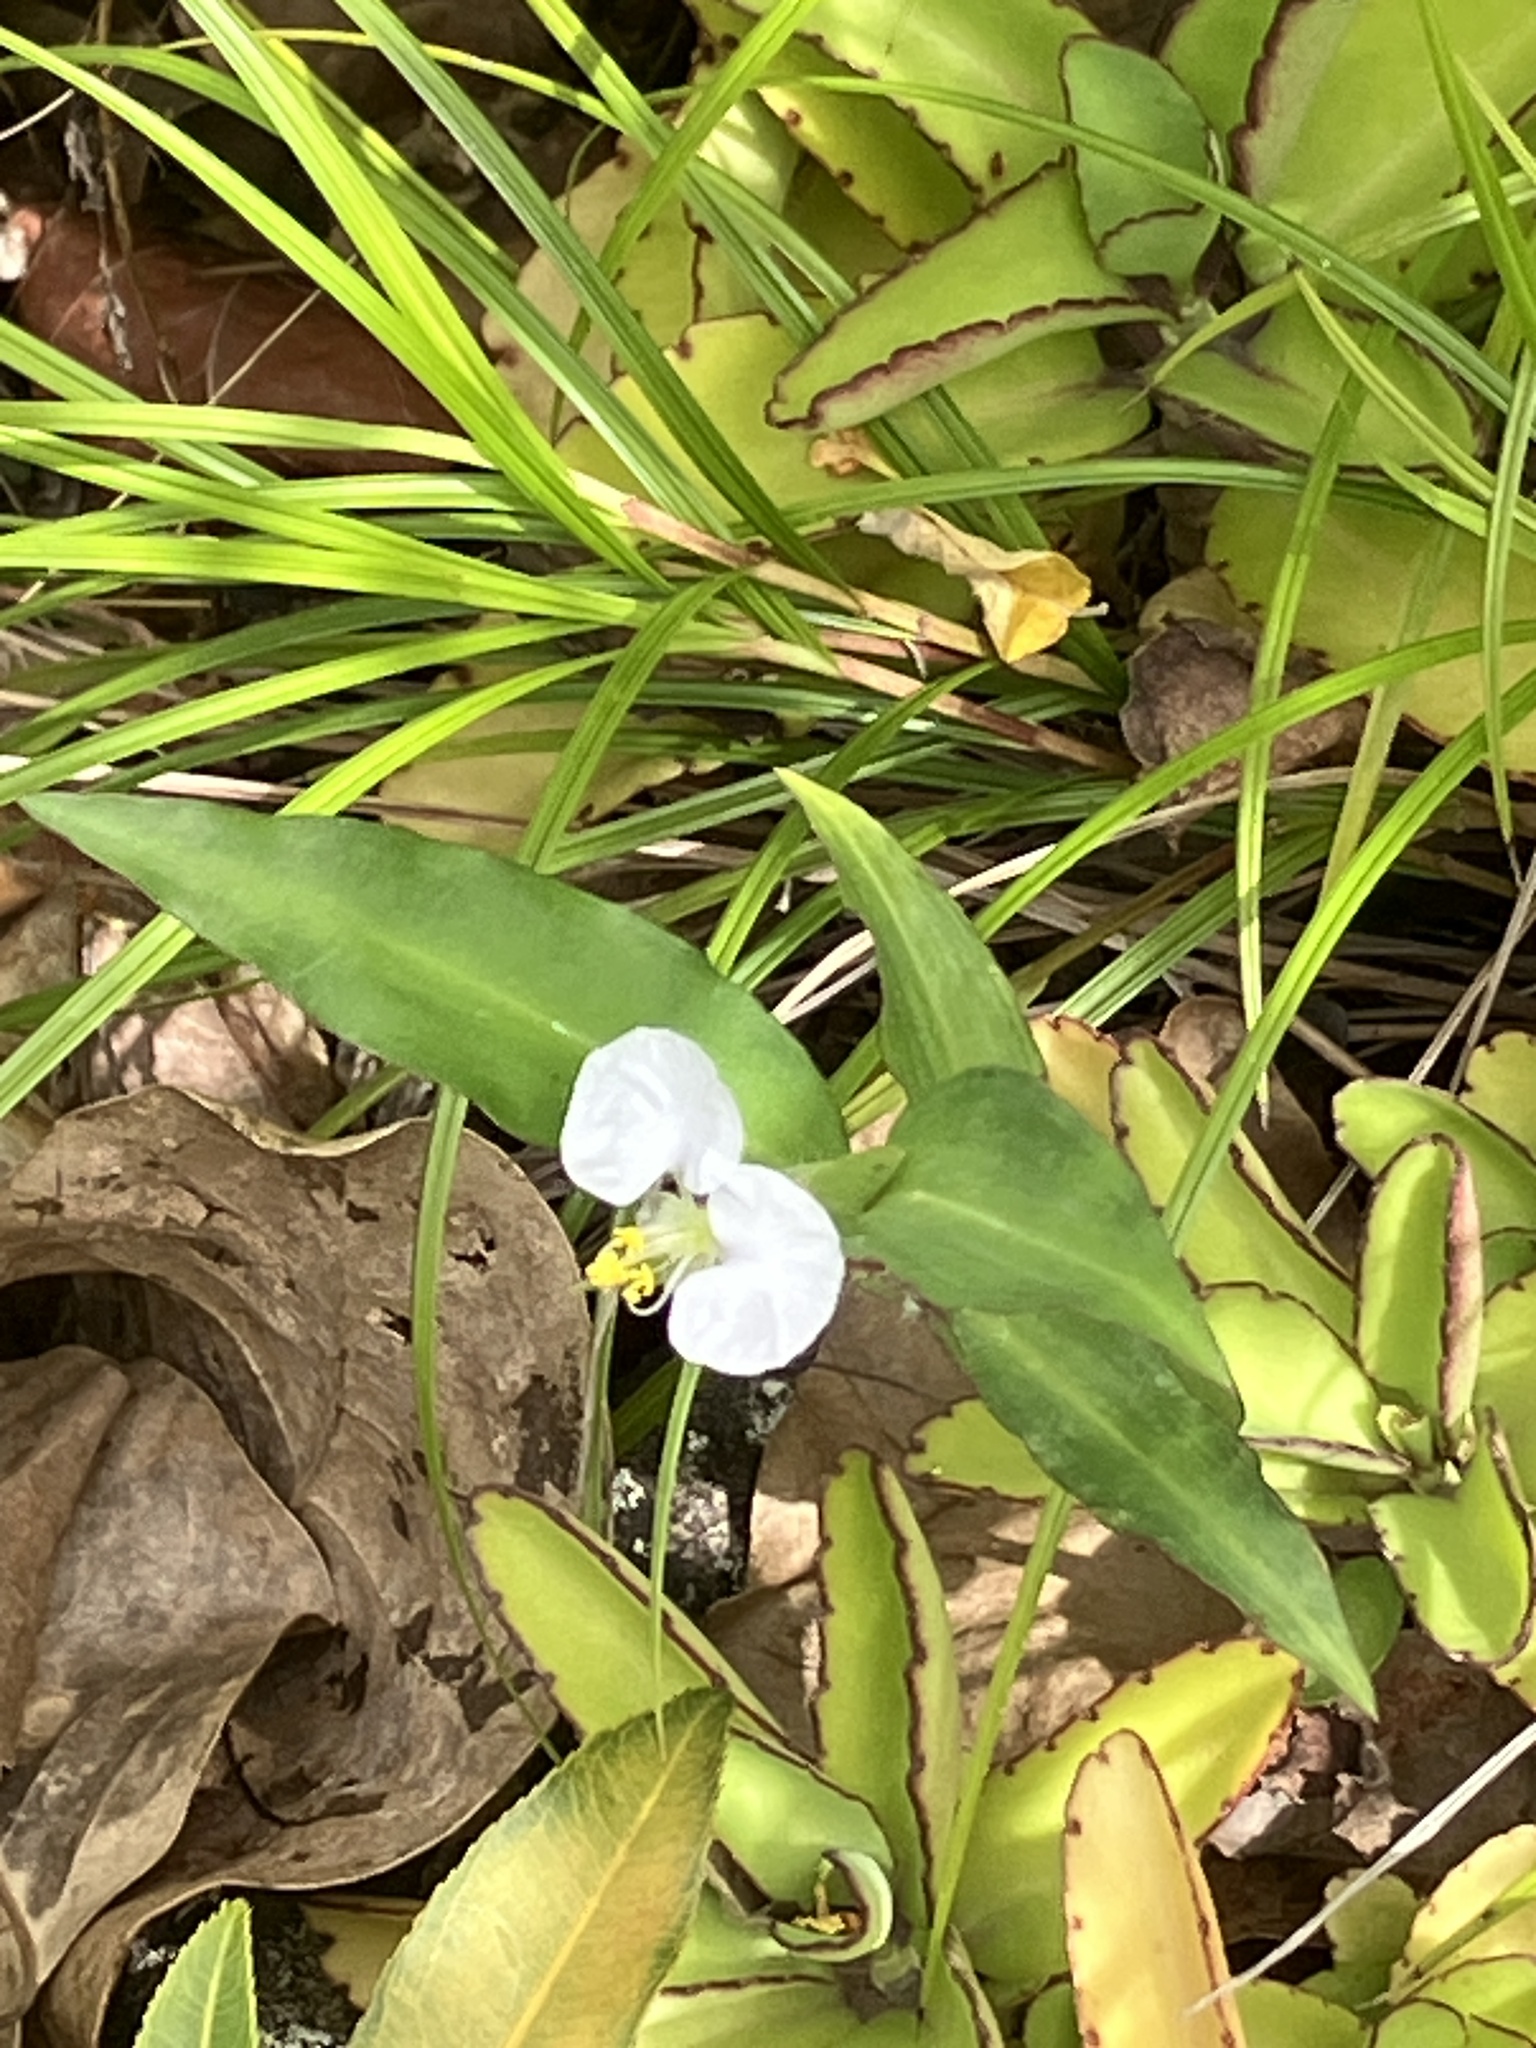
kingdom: Plantae
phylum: Tracheophyta
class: Liliopsida
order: Commelinales
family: Commelinaceae
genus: Commelina
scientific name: Commelina erecta
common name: Blousel blommetjie
